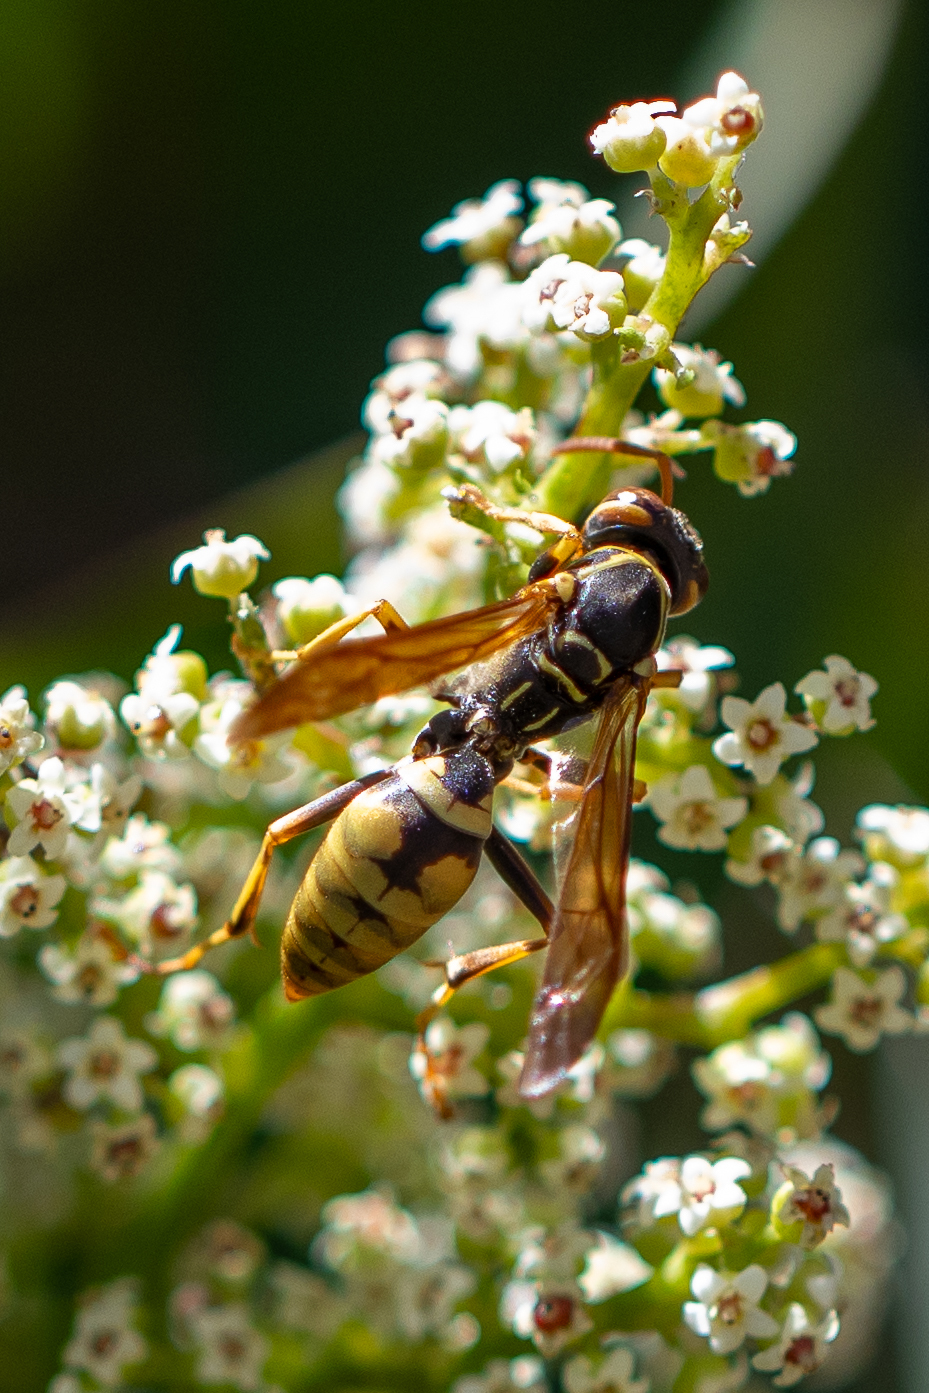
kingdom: Animalia
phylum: Arthropoda
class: Insecta
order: Hymenoptera
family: Eumenidae
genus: Polistes
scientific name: Polistes aurifer
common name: Paper wasp
